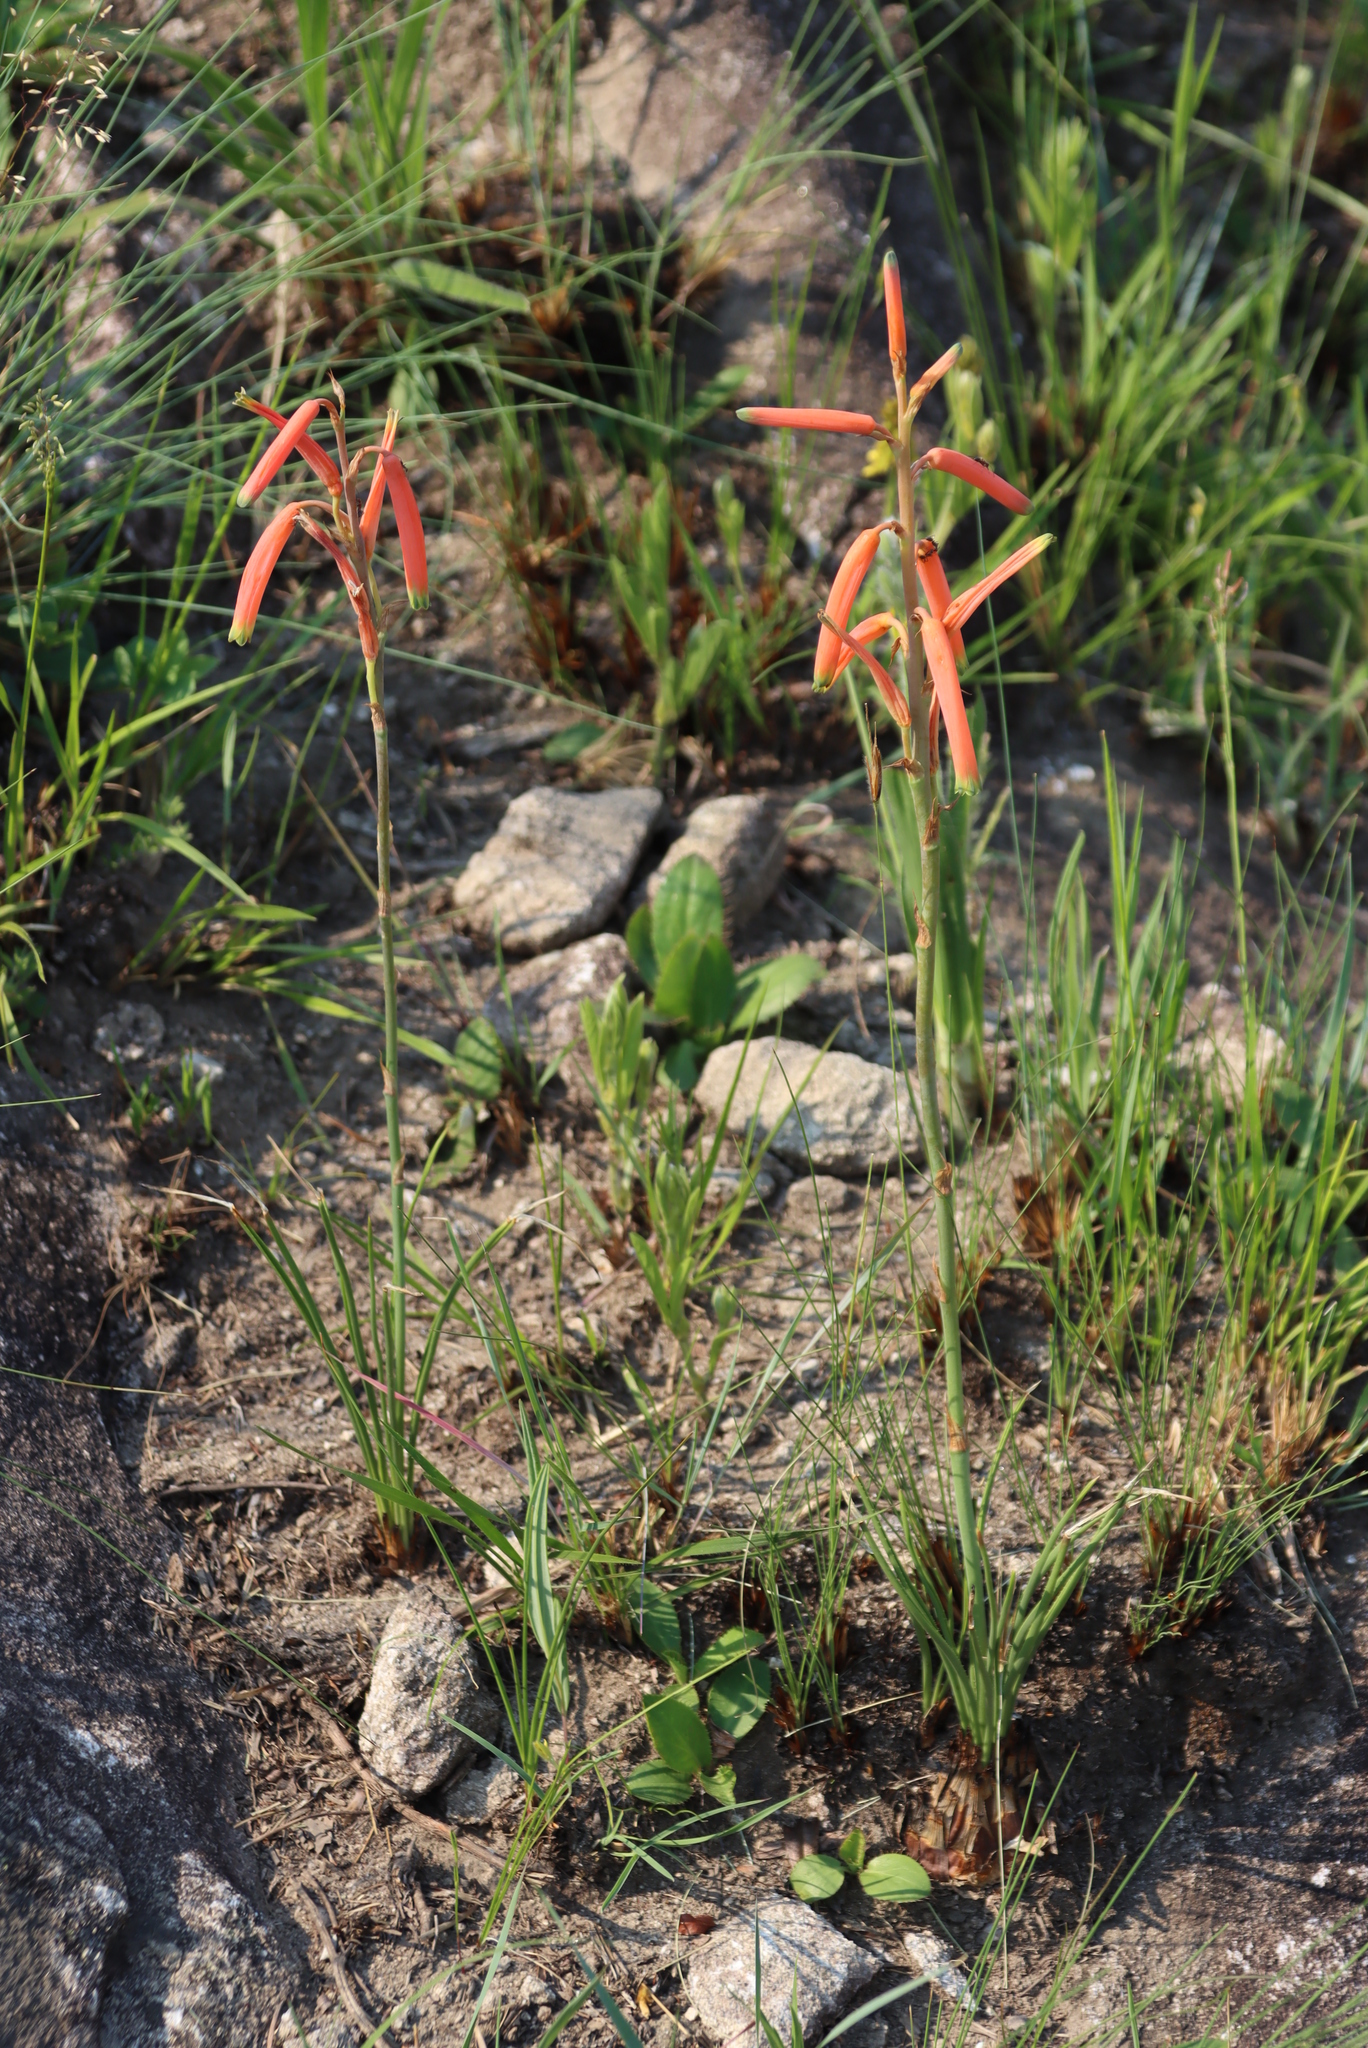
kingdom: Plantae
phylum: Tracheophyta
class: Liliopsida
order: Asparagales
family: Asphodelaceae
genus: Aloe
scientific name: Aloe kniphofioides
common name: Grass aloe
